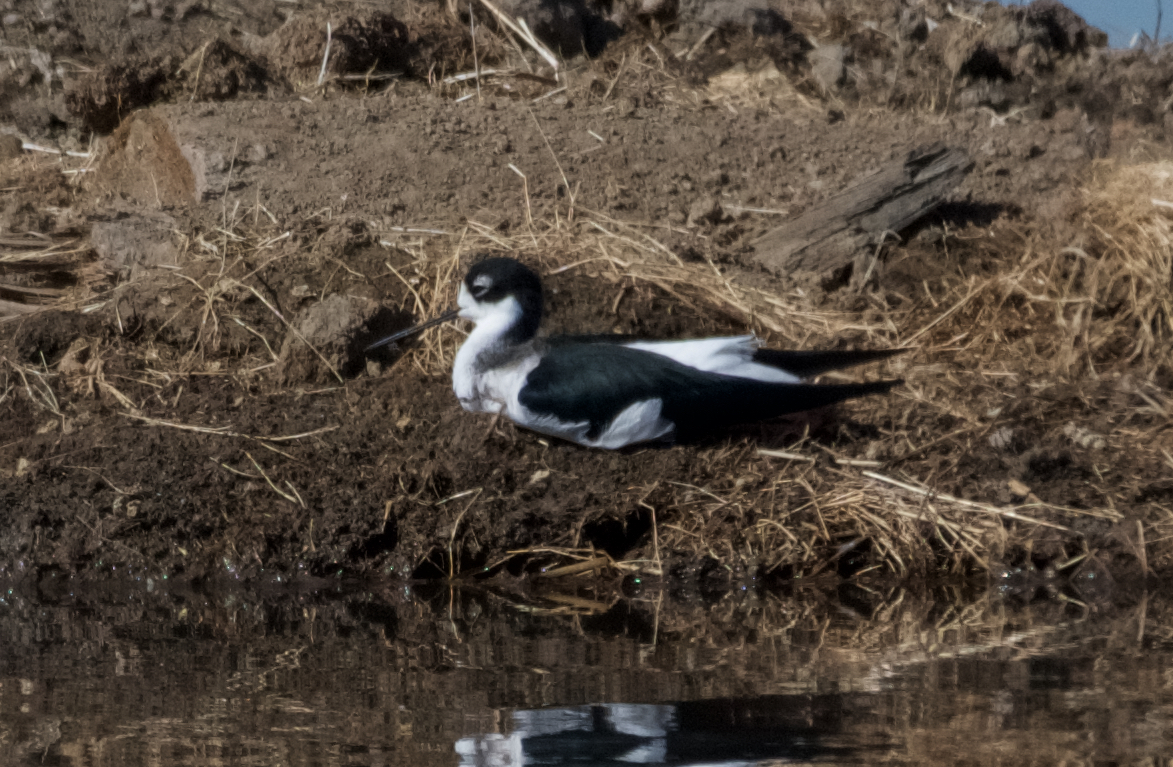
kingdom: Animalia
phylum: Chordata
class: Aves
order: Charadriiformes
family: Recurvirostridae
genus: Himantopus
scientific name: Himantopus mexicanus
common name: Black-necked stilt
